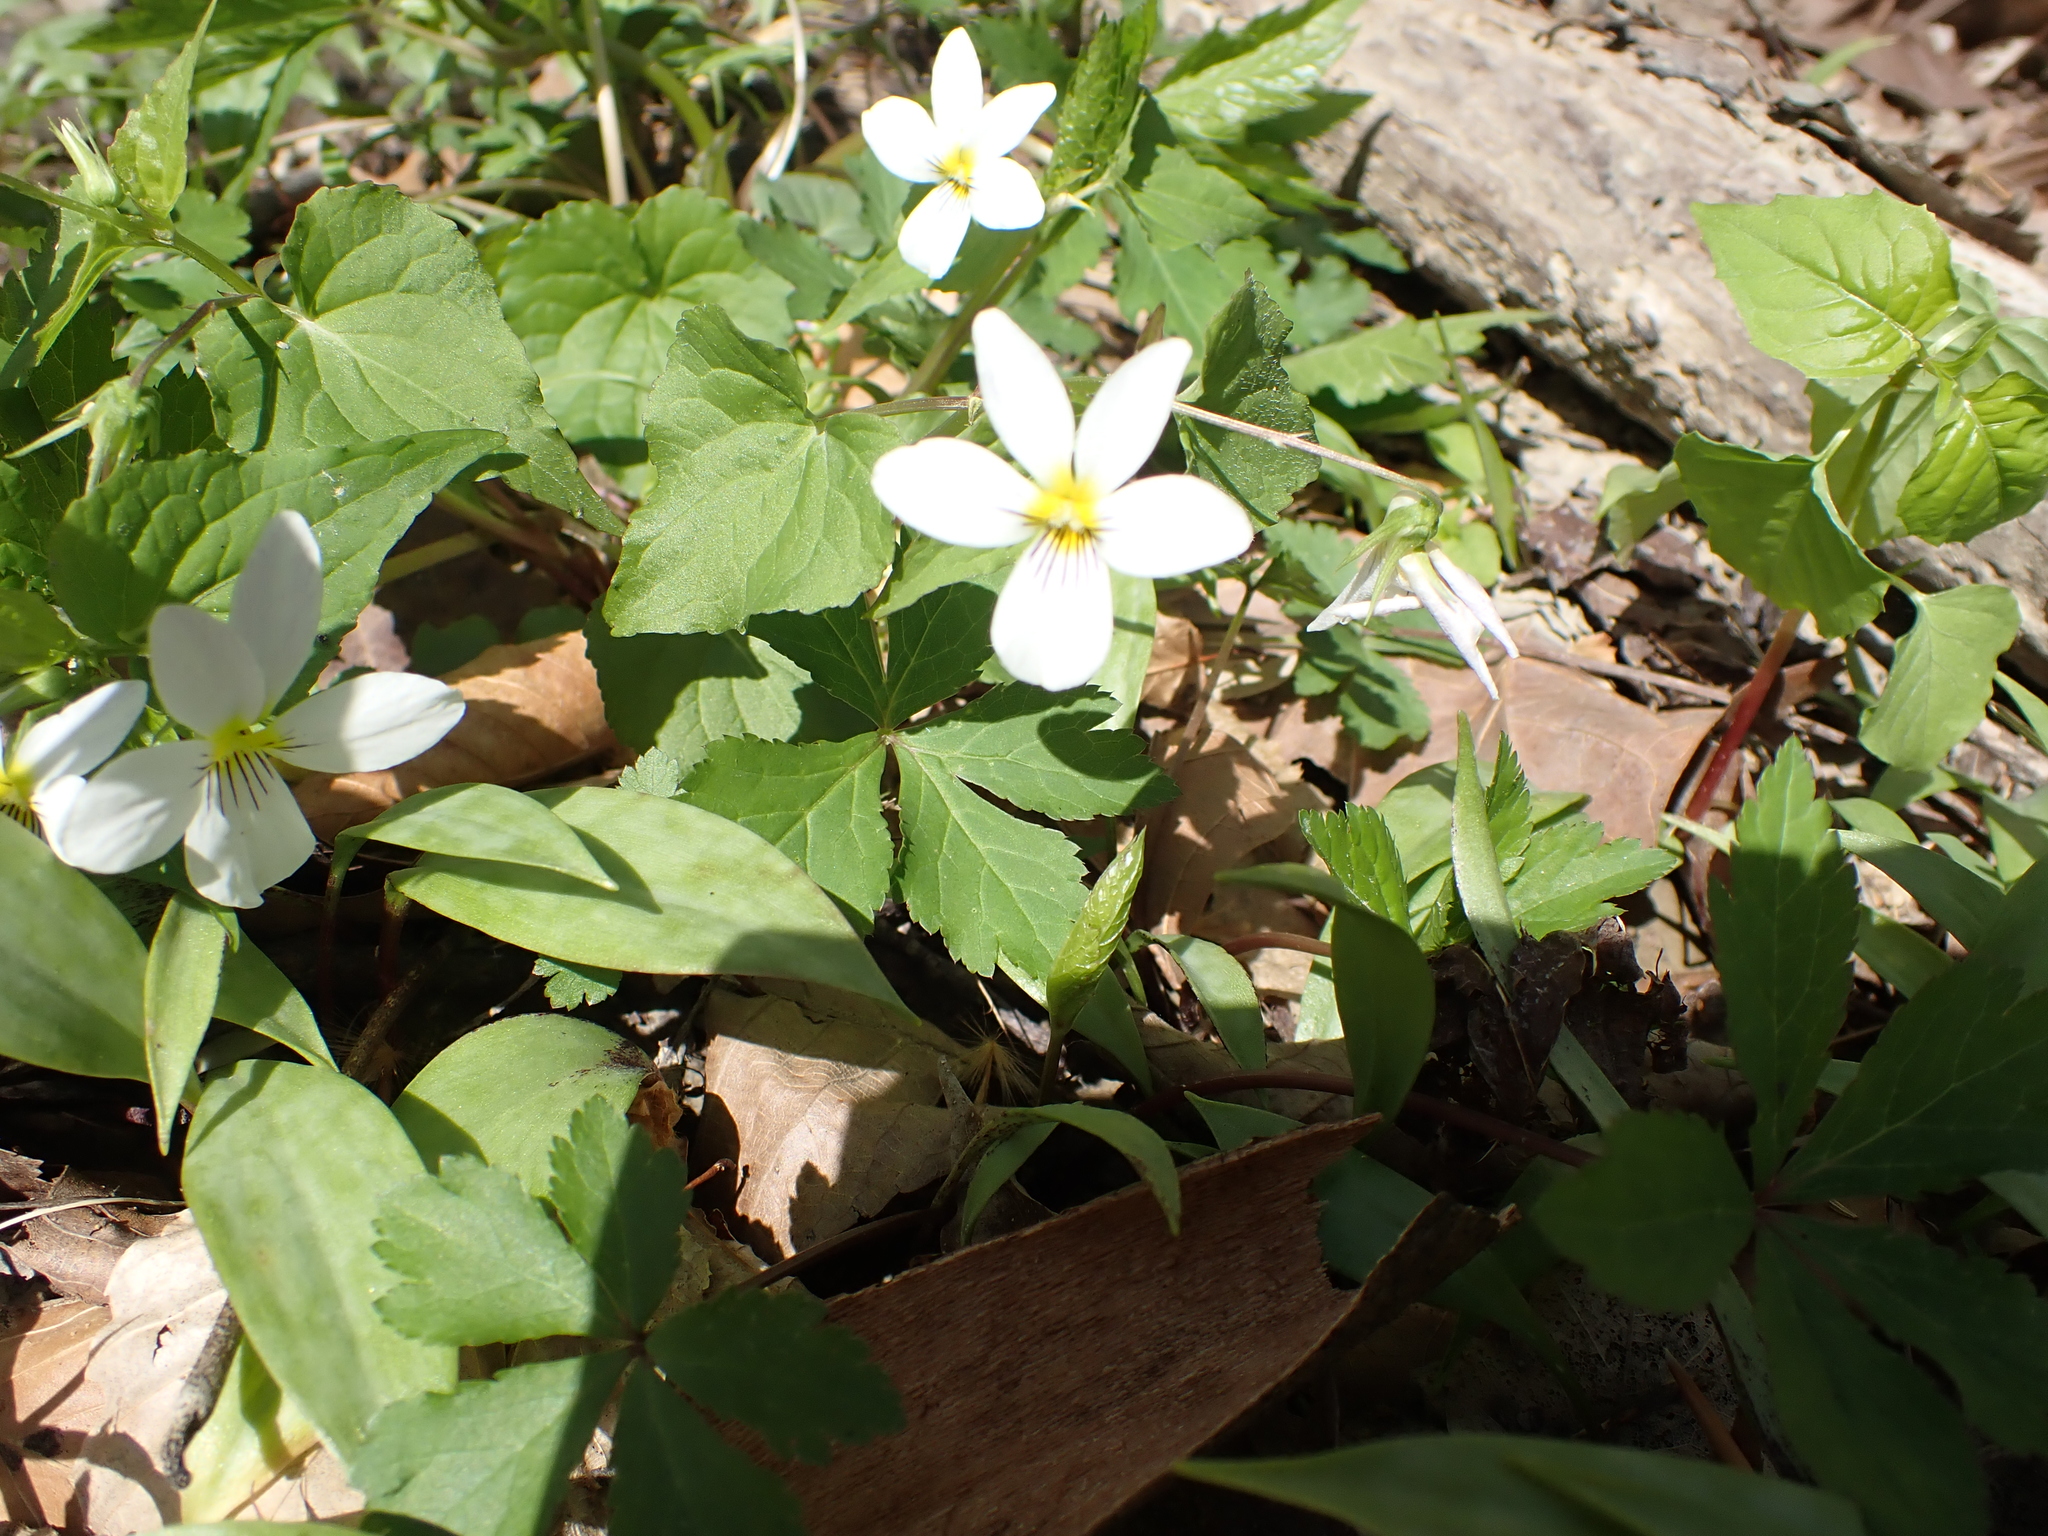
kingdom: Plantae
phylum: Tracheophyta
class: Magnoliopsida
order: Malpighiales
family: Violaceae
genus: Viola
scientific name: Viola canadensis
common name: Canada violet
